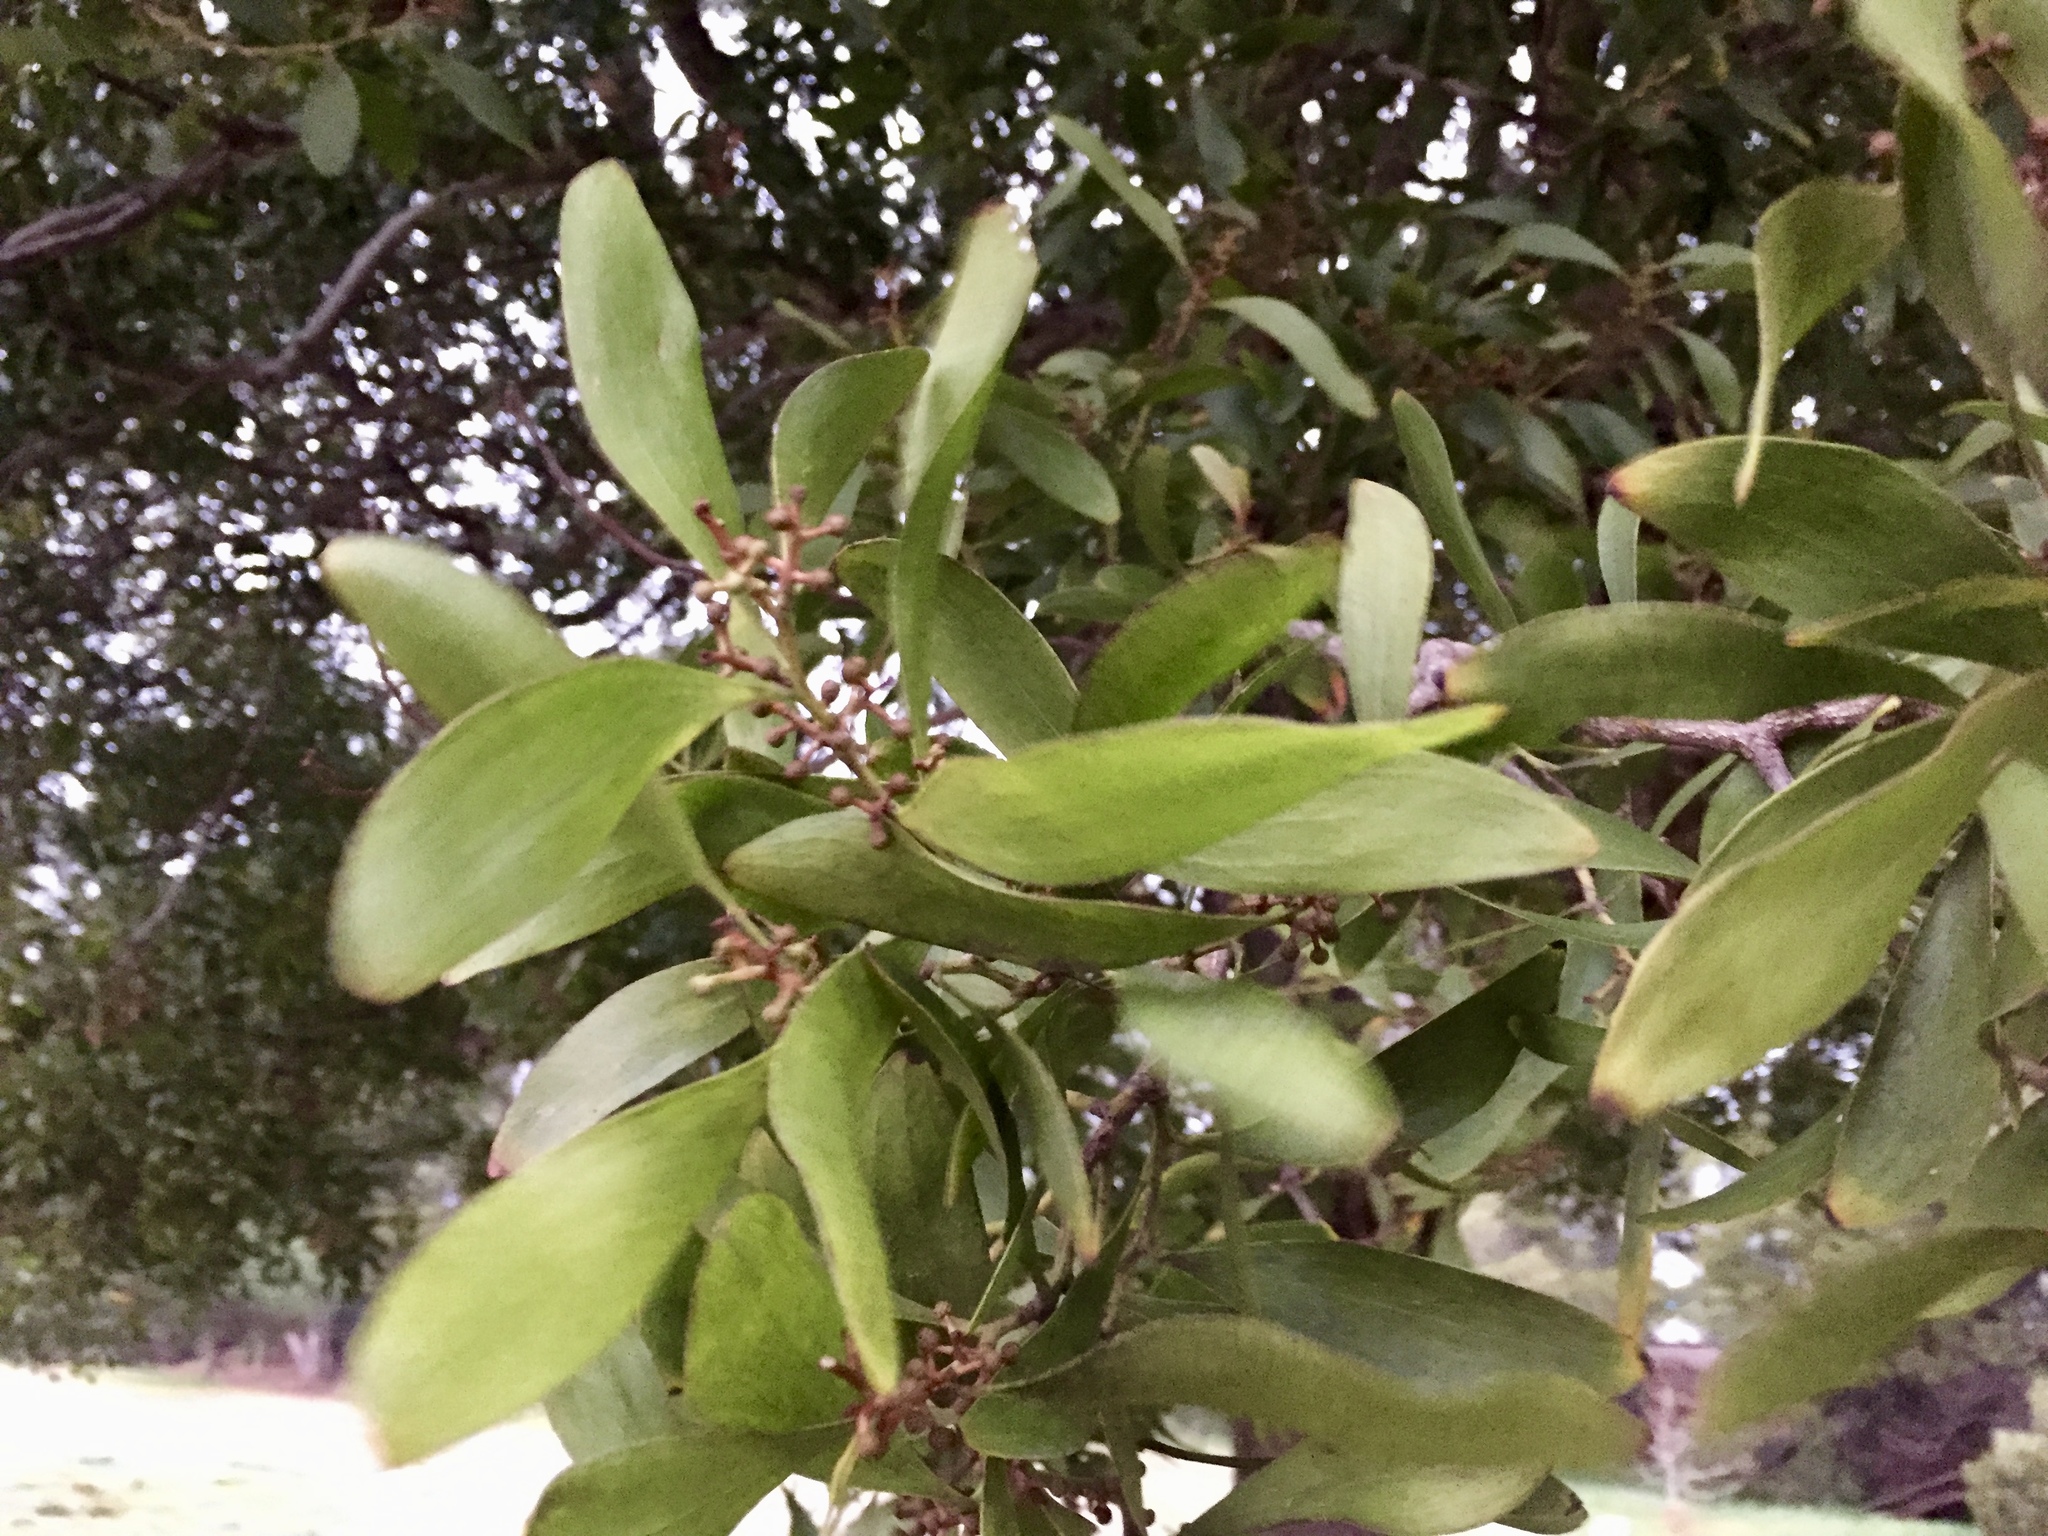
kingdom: Plantae
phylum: Tracheophyta
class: Magnoliopsida
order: Fabales
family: Fabaceae
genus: Acacia
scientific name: Acacia melanoxylon
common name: Blackwood
